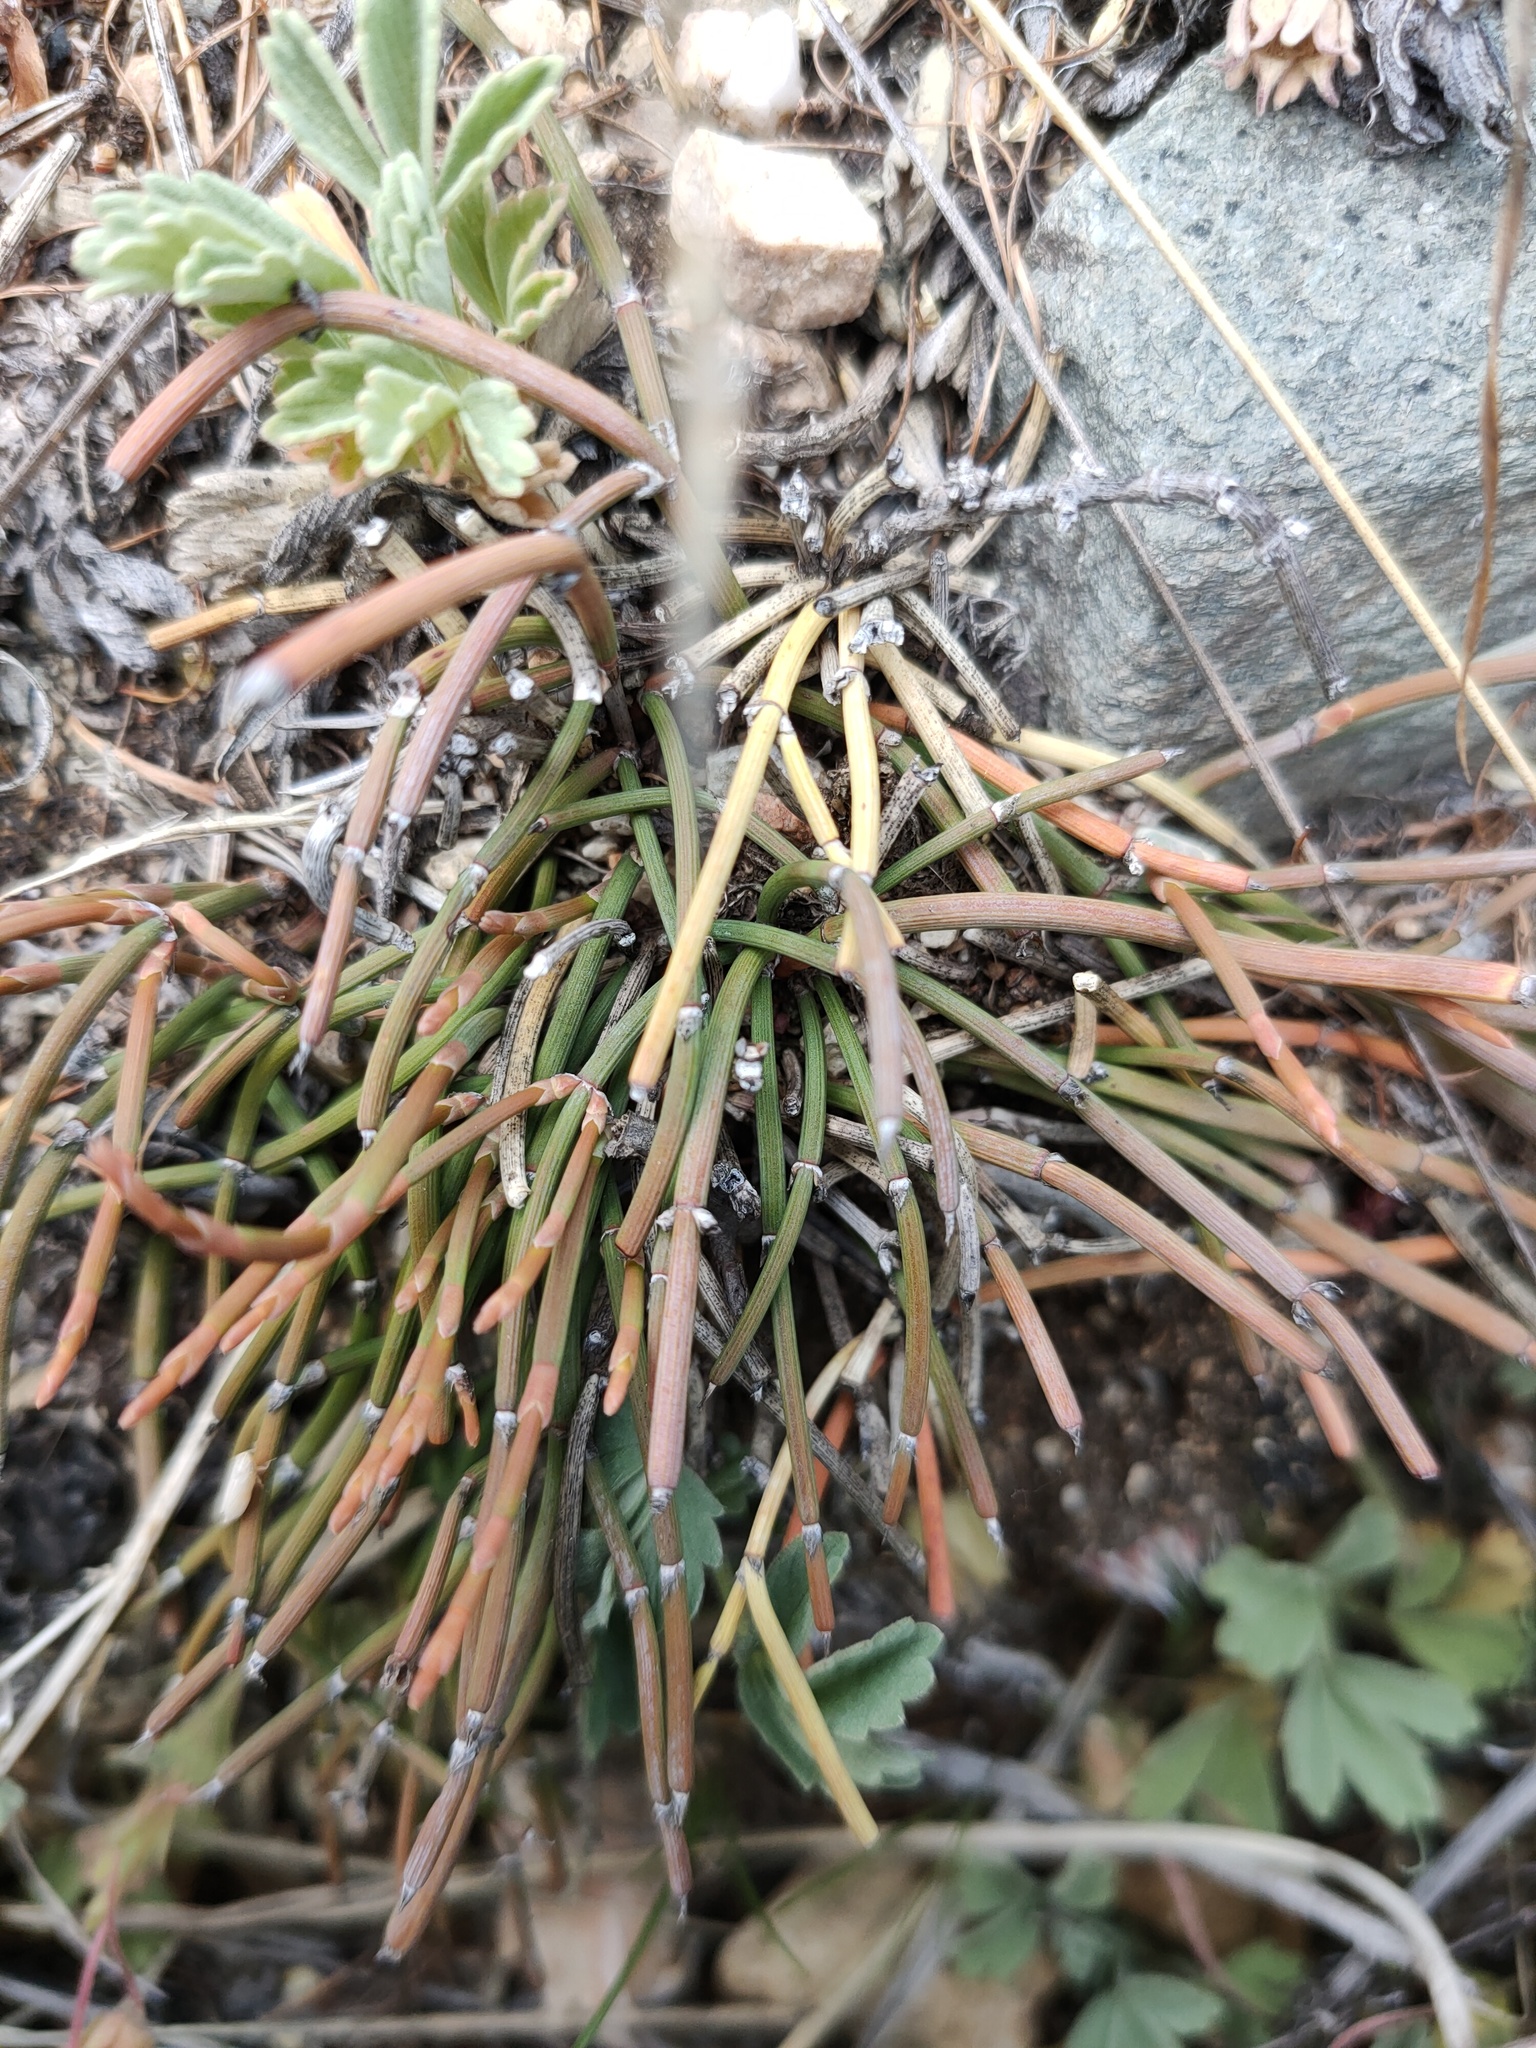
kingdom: Plantae
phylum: Tracheophyta
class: Gnetopsida
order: Ephedrales
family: Ephedraceae
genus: Ephedra
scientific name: Ephedra monosperma
